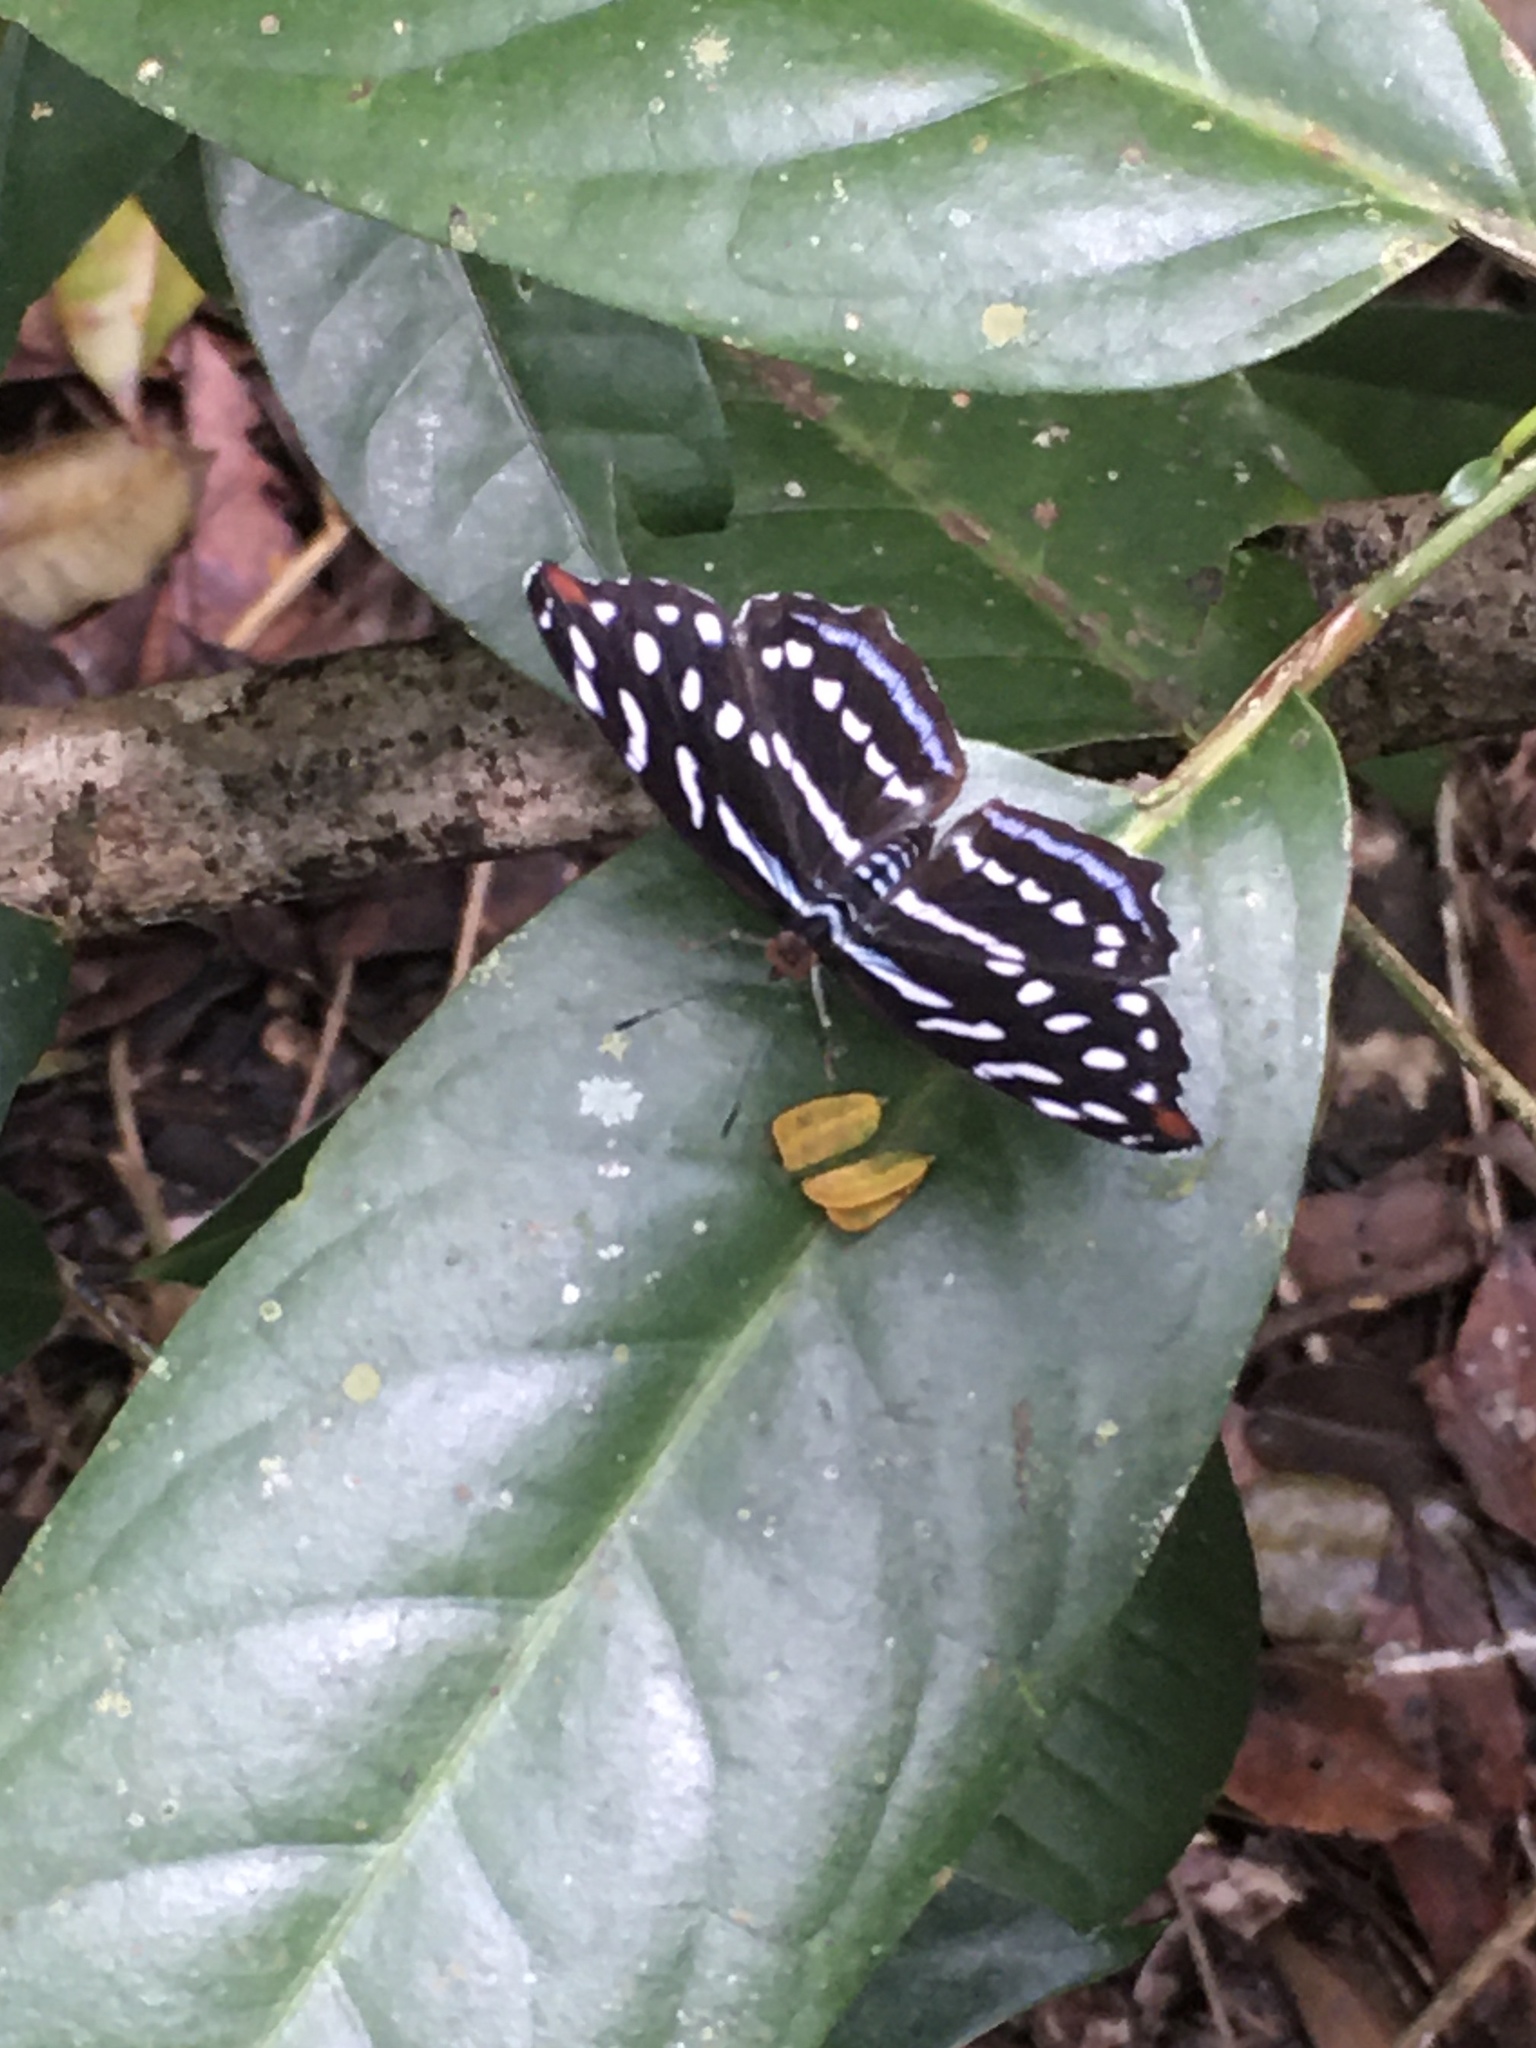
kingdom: Animalia
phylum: Arthropoda
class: Insecta
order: Lepidoptera
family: Nymphalidae
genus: Myscelia
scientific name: Myscelia orsis
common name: Orsis bluewing
